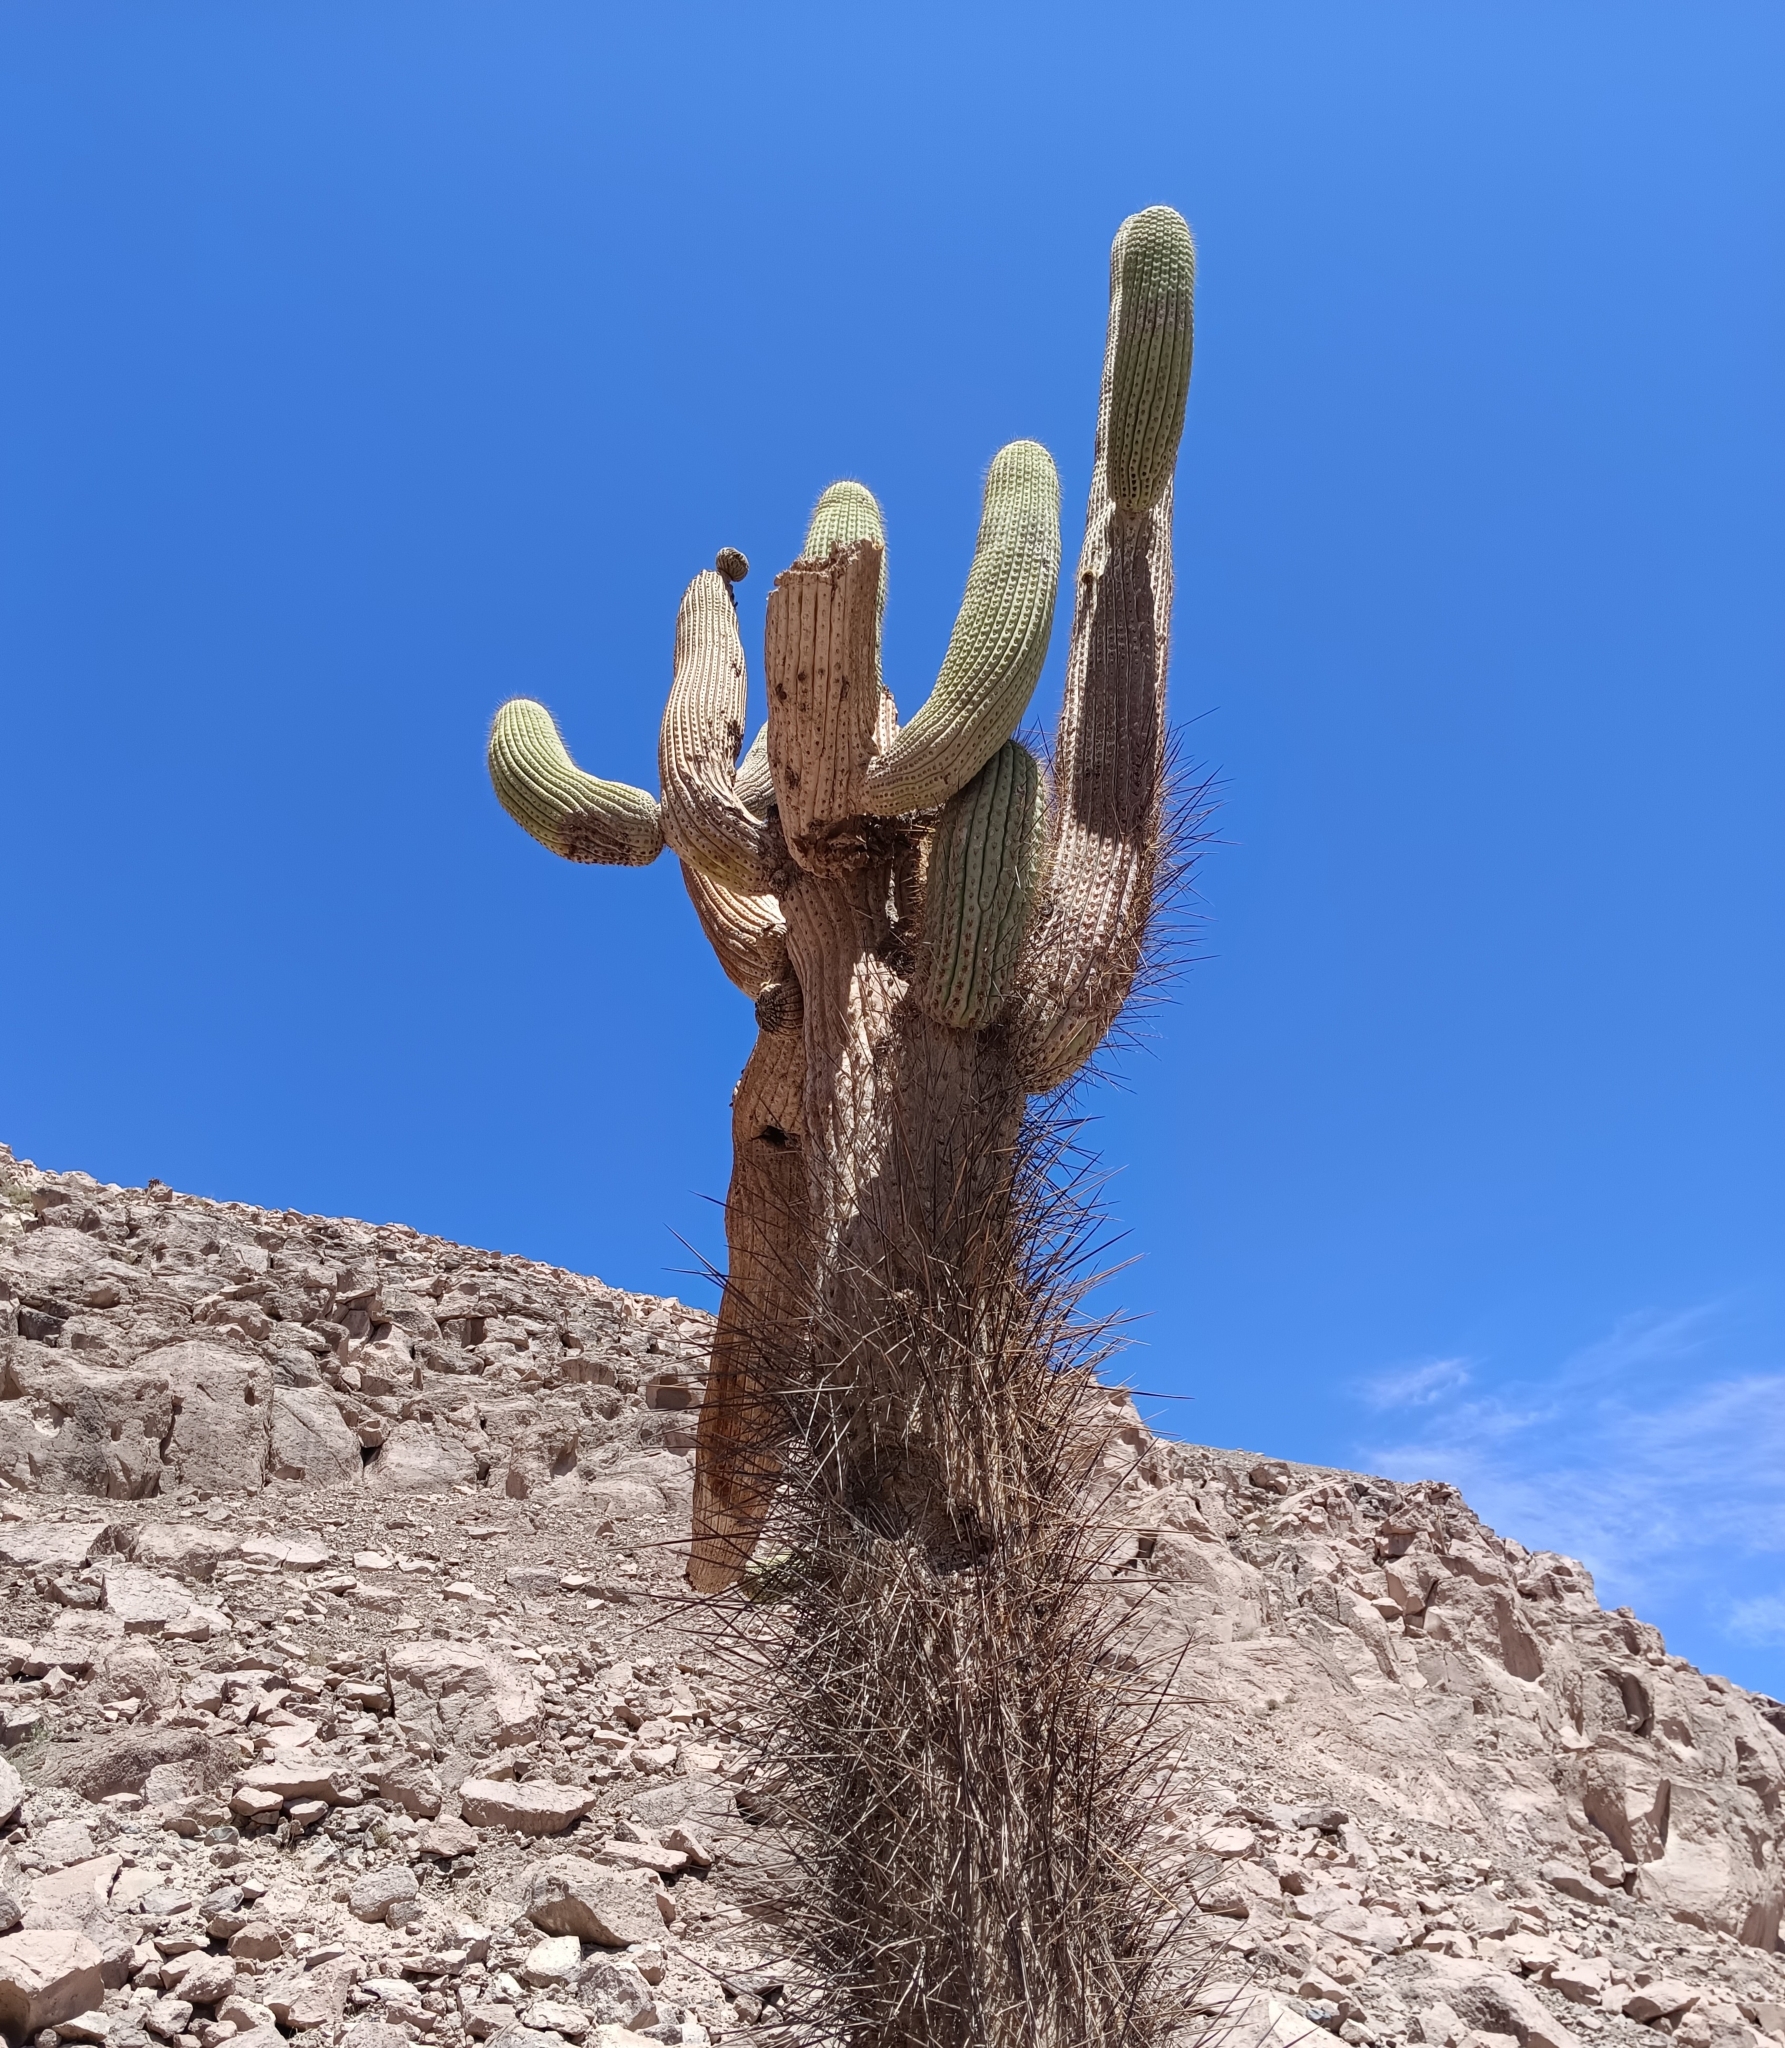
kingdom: Plantae
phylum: Tracheophyta
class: Magnoliopsida
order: Caryophyllales
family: Cactaceae
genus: Browningia
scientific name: Browningia candelaris
